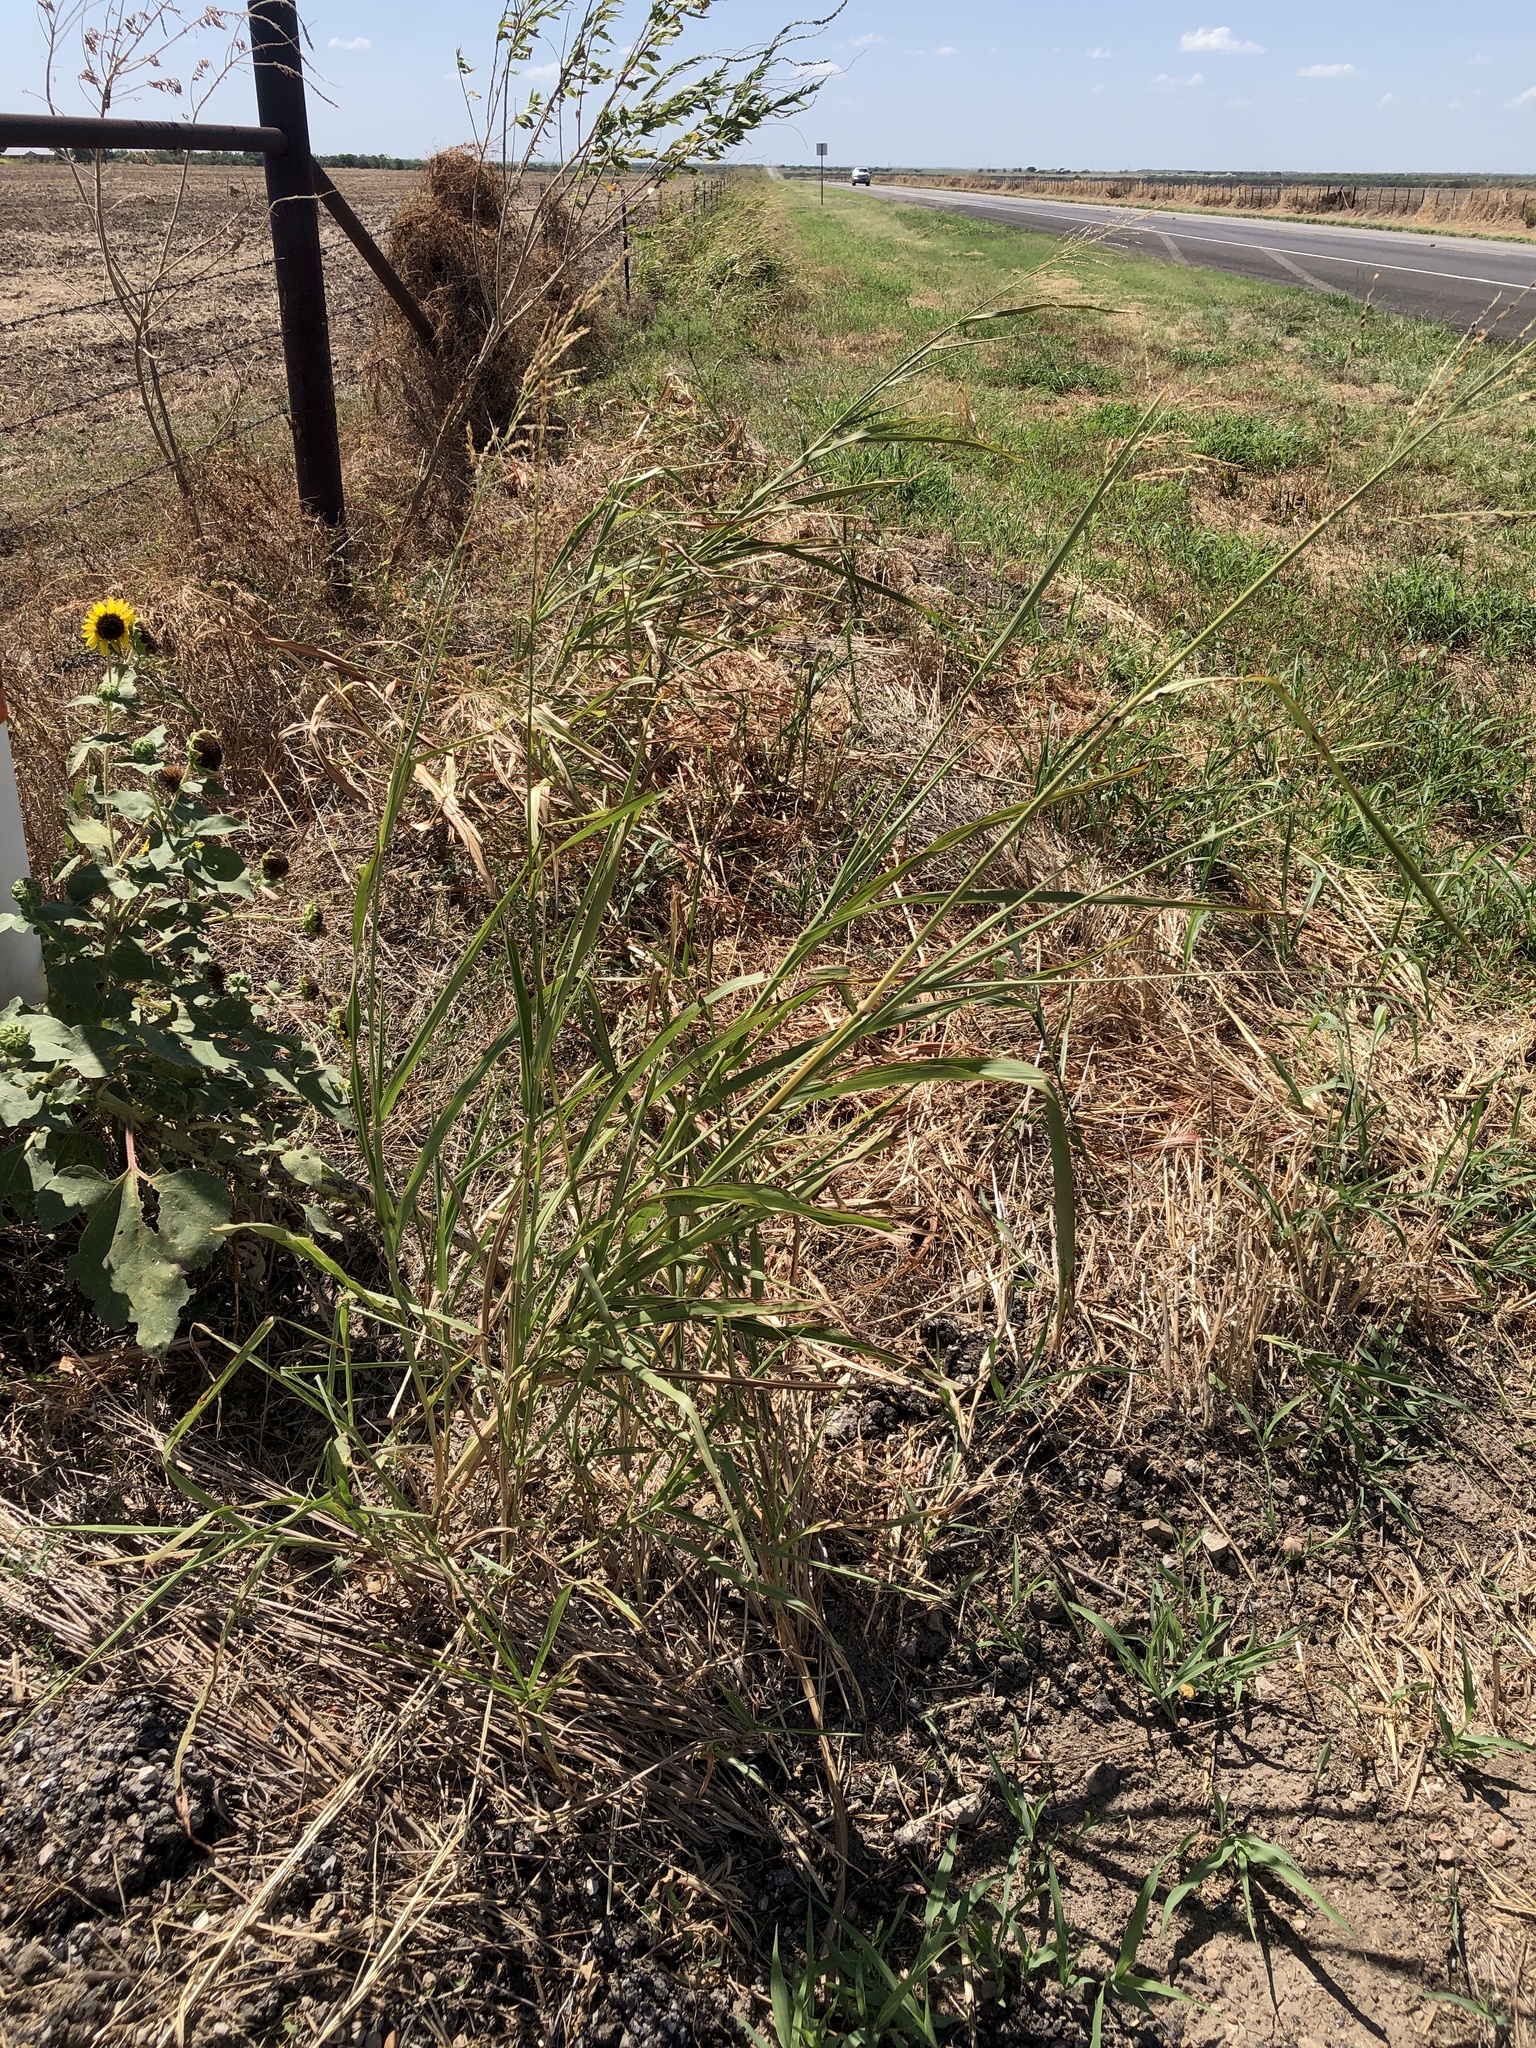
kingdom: Plantae
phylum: Tracheophyta
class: Liliopsida
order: Poales
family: Poaceae
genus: Sorghum
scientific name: Sorghum halepense
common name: Johnson-grass
